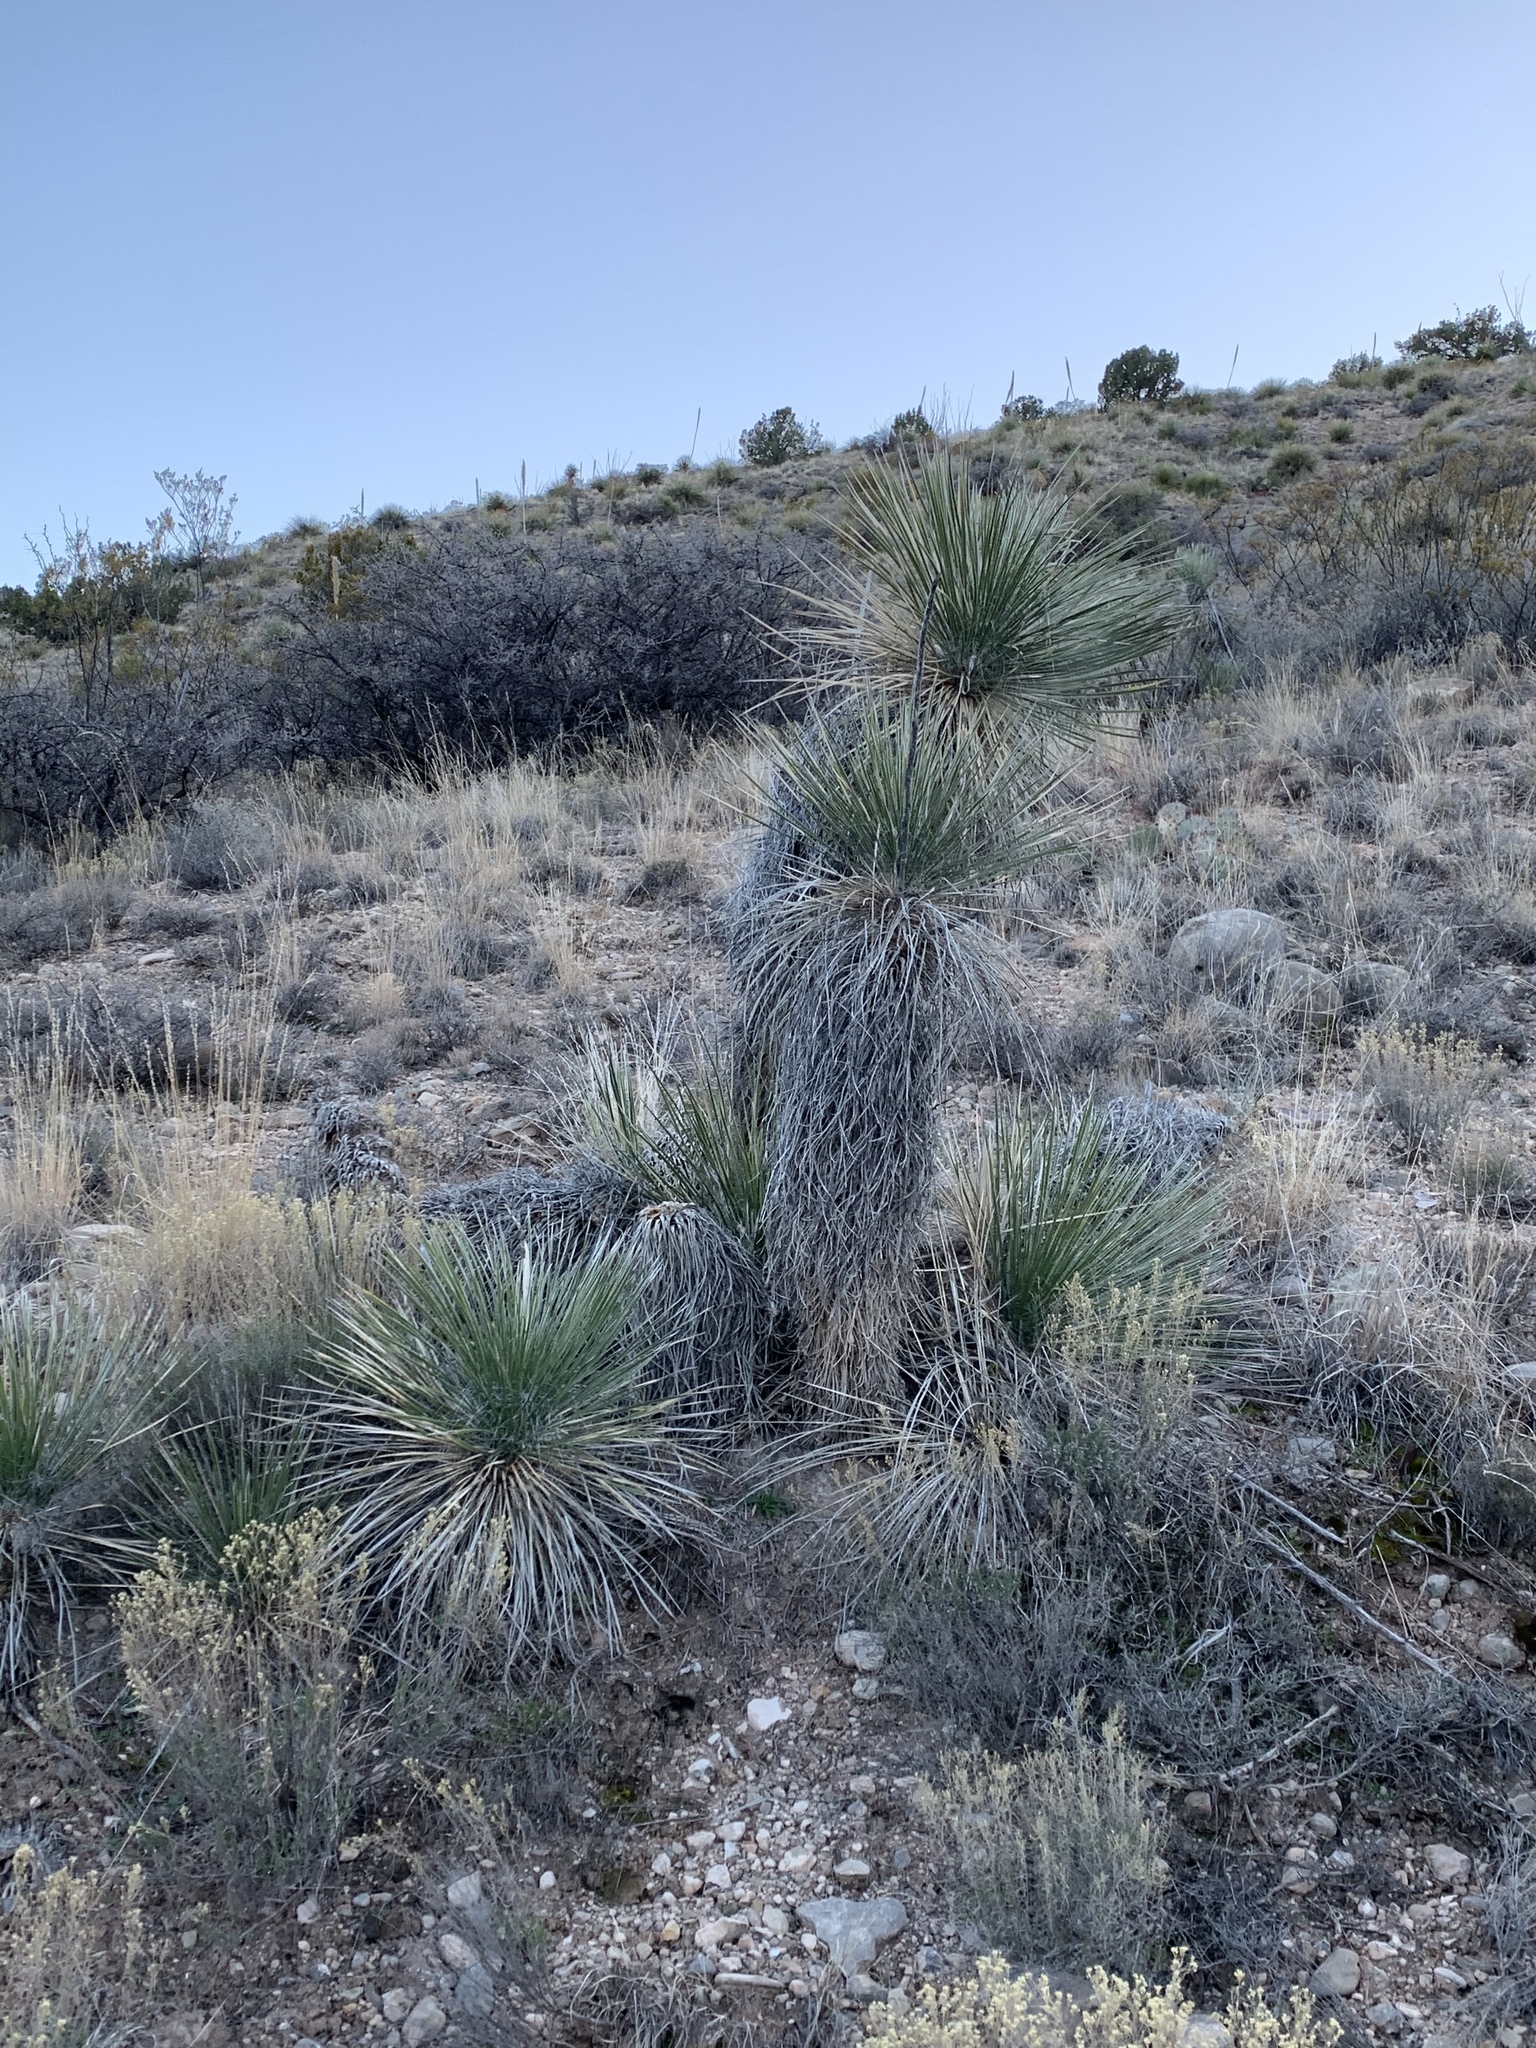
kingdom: Plantae
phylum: Tracheophyta
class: Liliopsida
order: Asparagales
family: Asparagaceae
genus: Yucca
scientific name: Yucca elata
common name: Palmella
